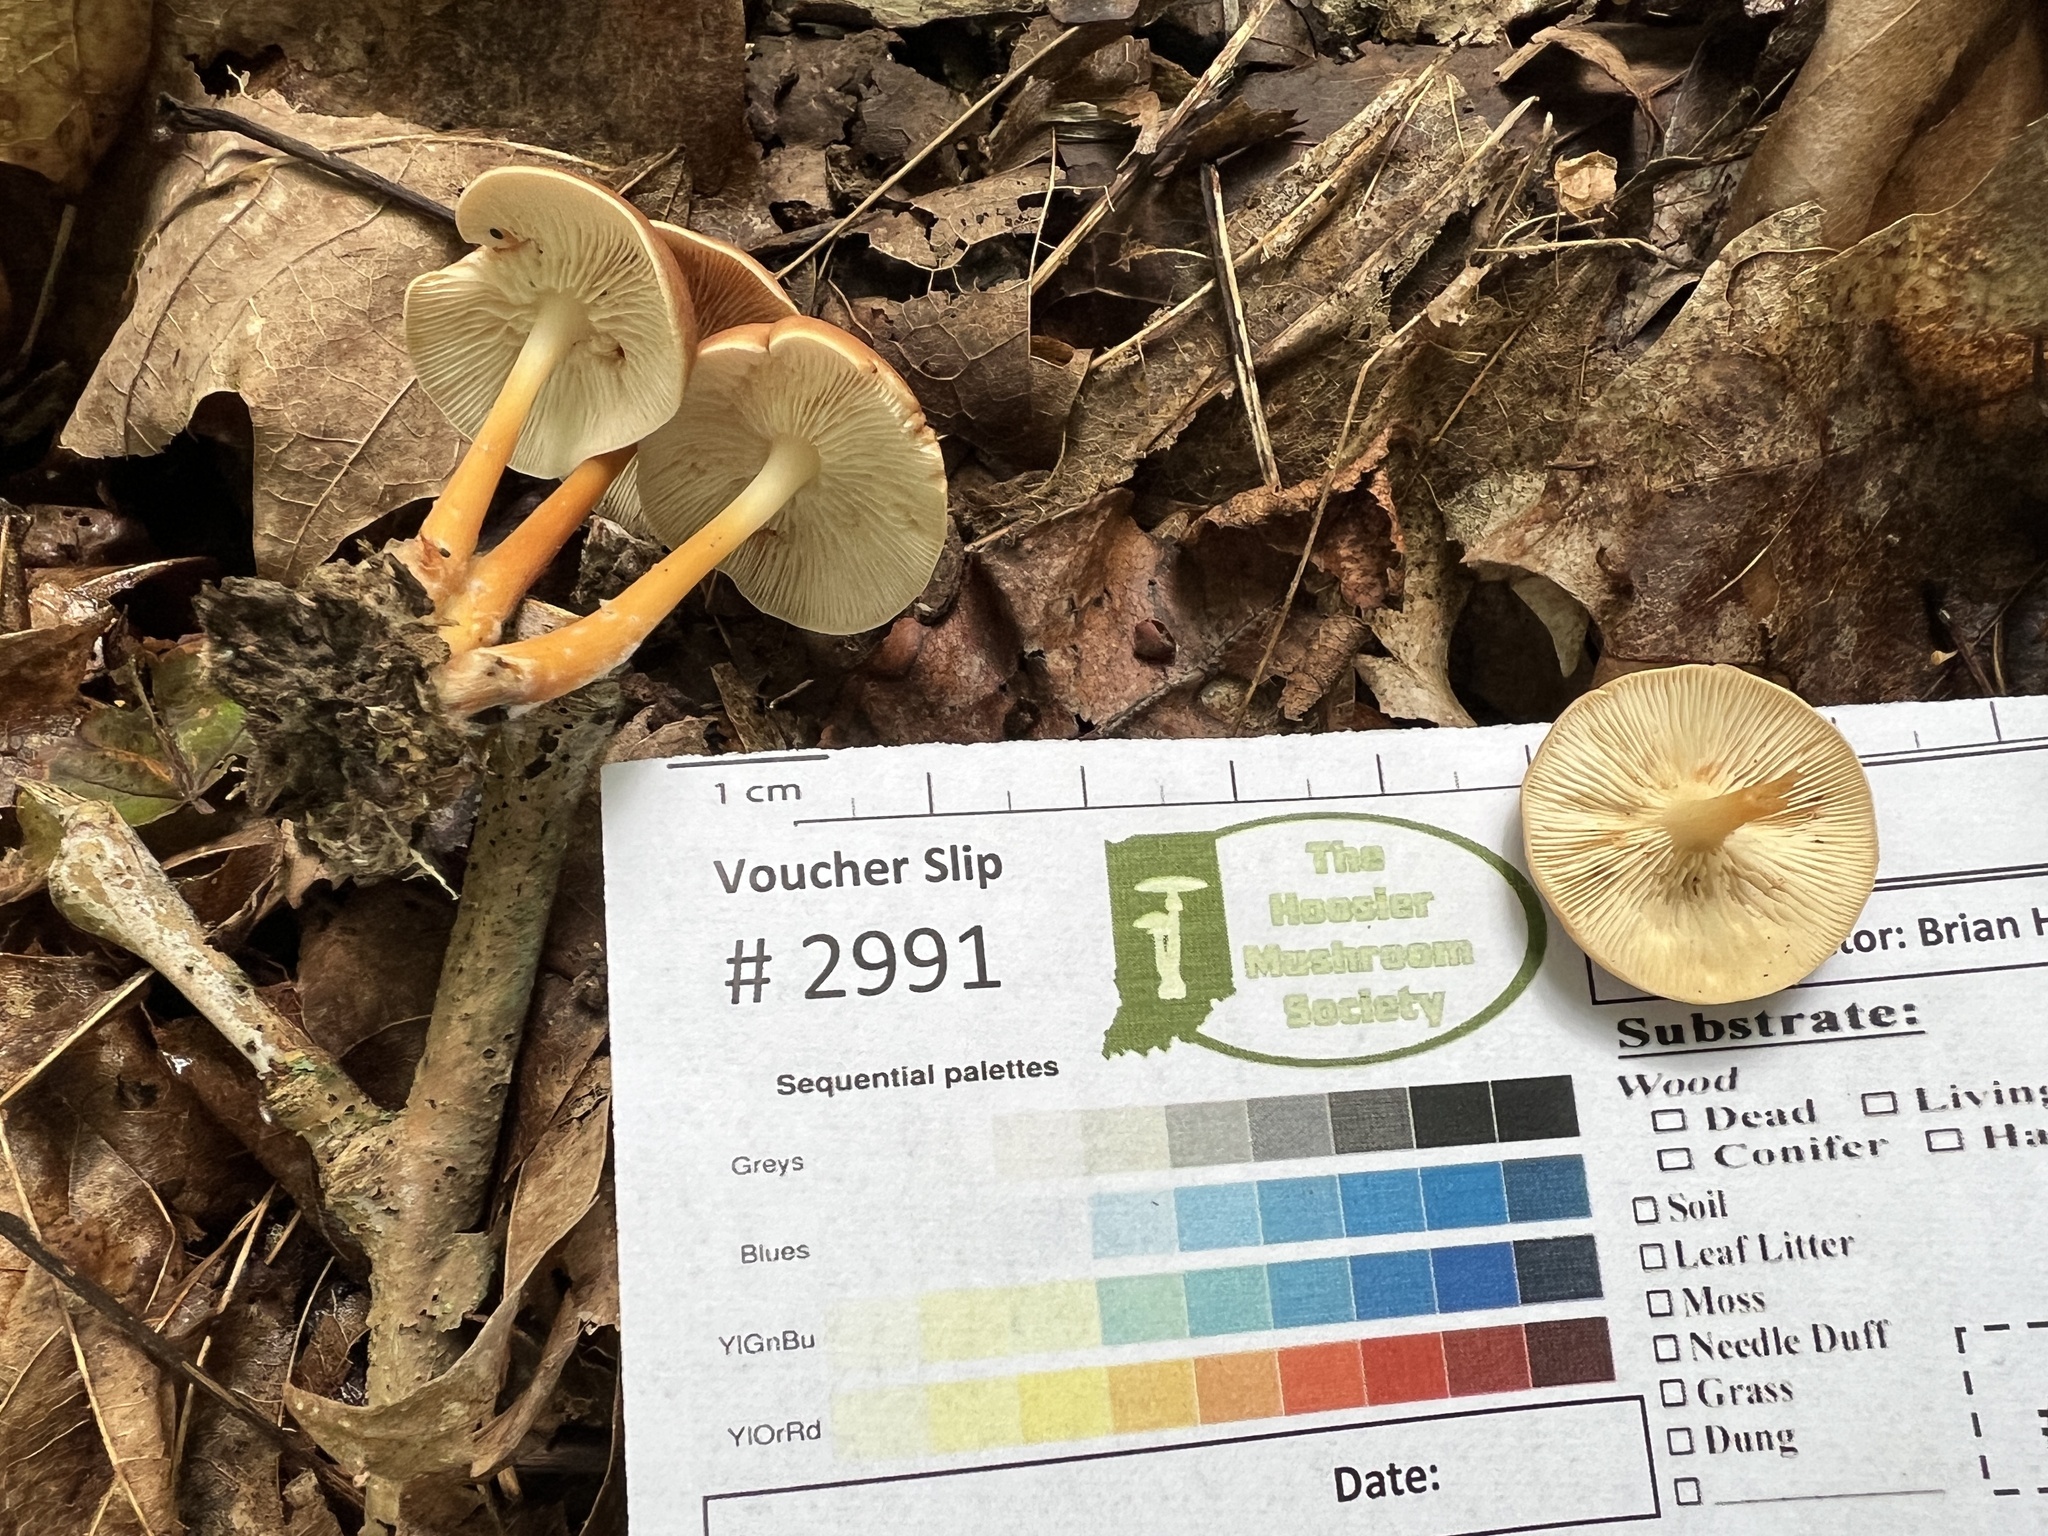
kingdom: Fungi
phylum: Basidiomycota
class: Agaricomycetes
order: Agaricales
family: Omphalotaceae
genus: Gymnopus
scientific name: Gymnopus dryophilus
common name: Penny top
